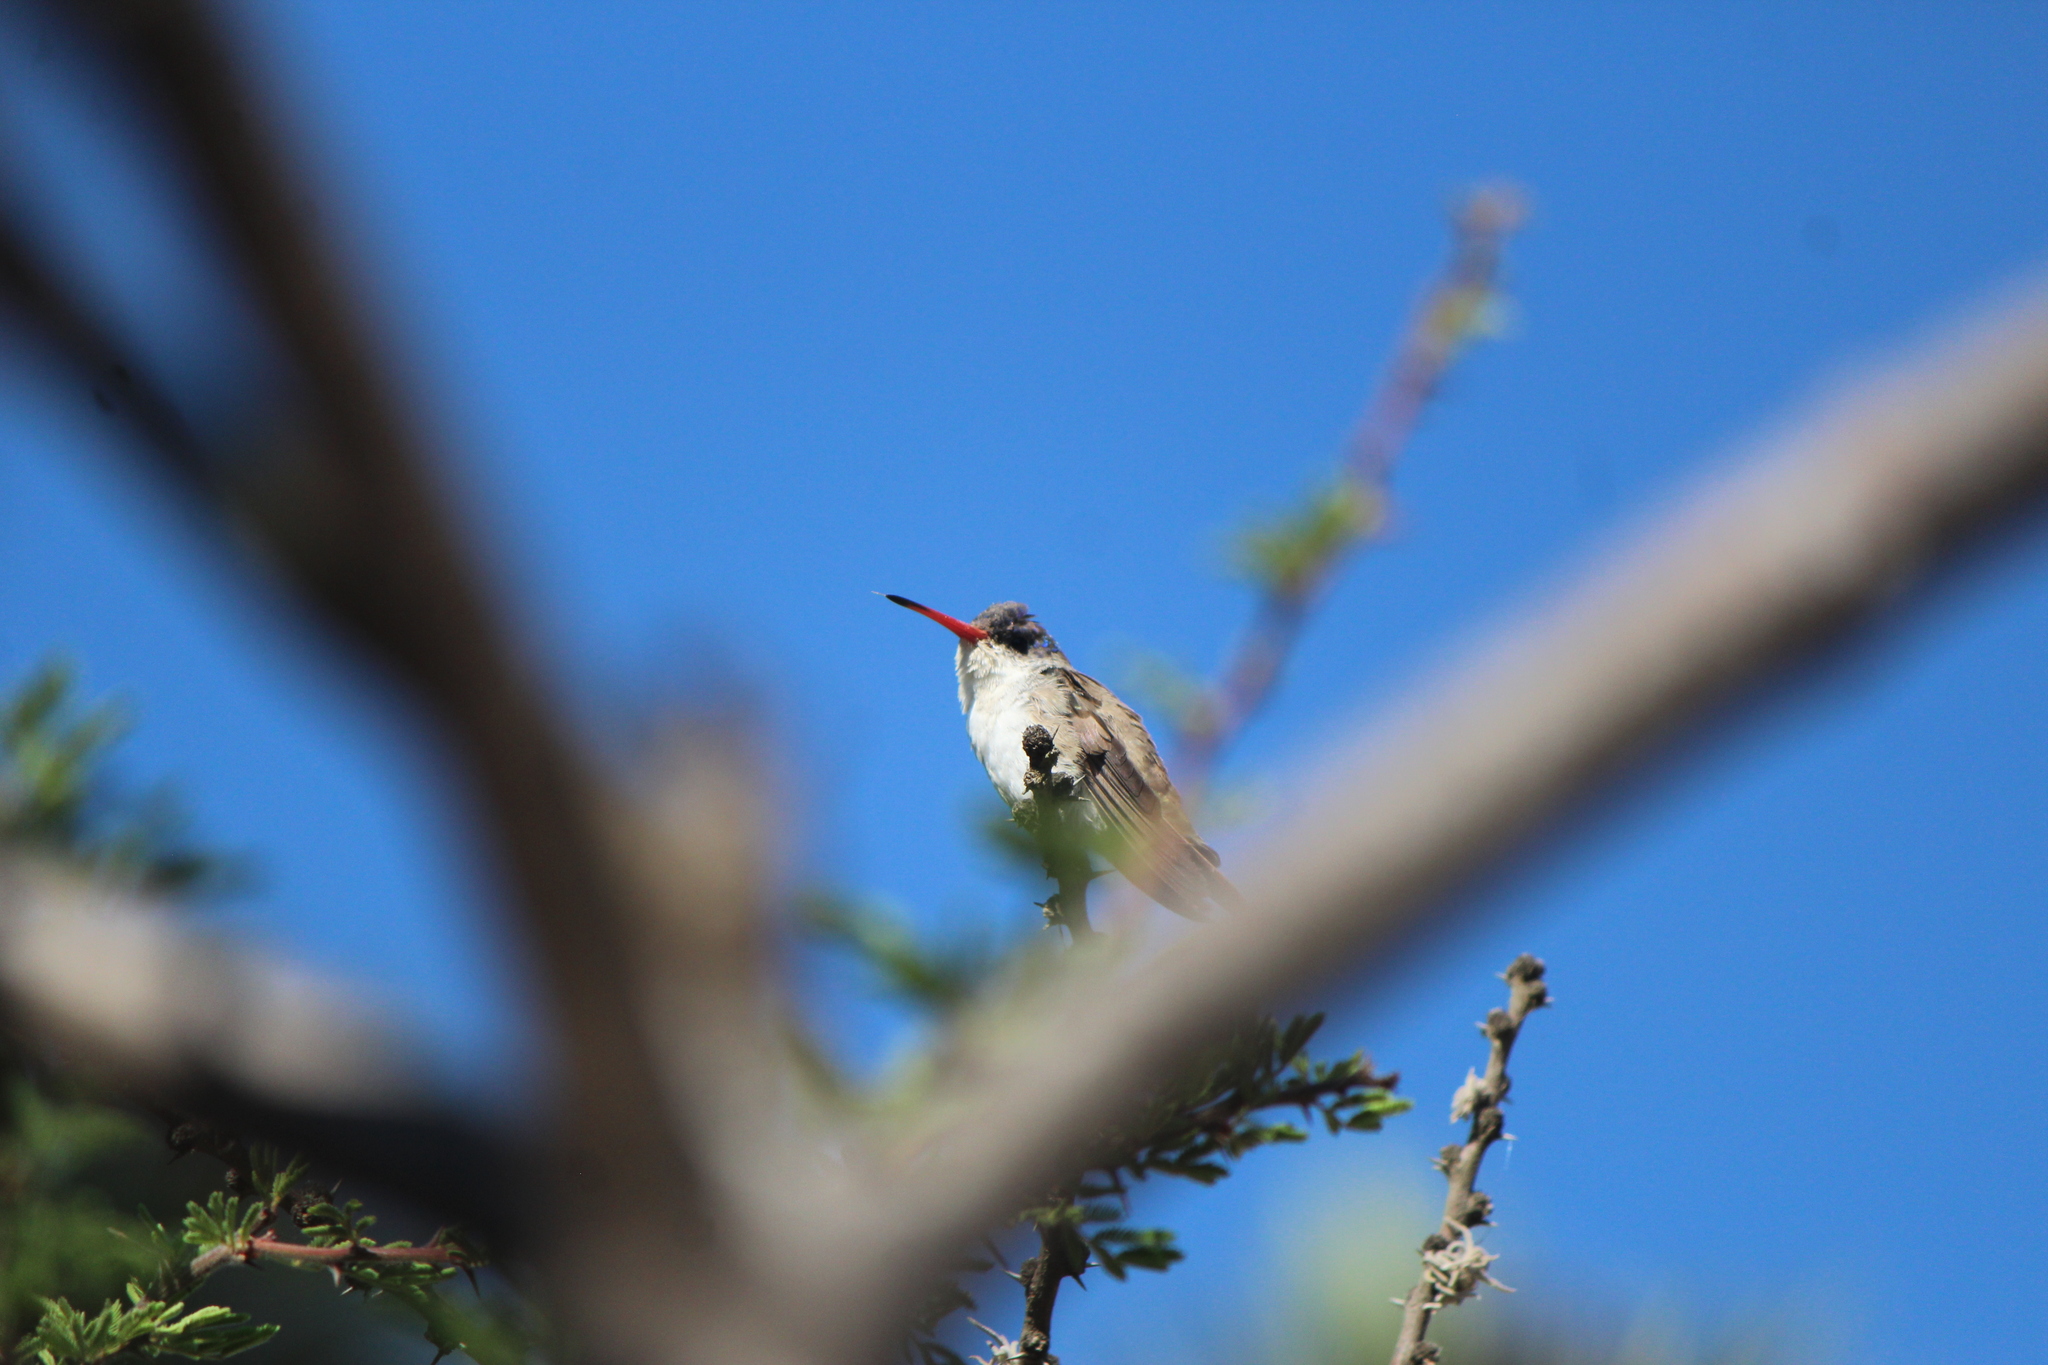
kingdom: Animalia
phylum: Chordata
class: Aves
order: Apodiformes
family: Trochilidae
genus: Leucolia
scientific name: Leucolia violiceps
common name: Violet-crowned hummingbird
